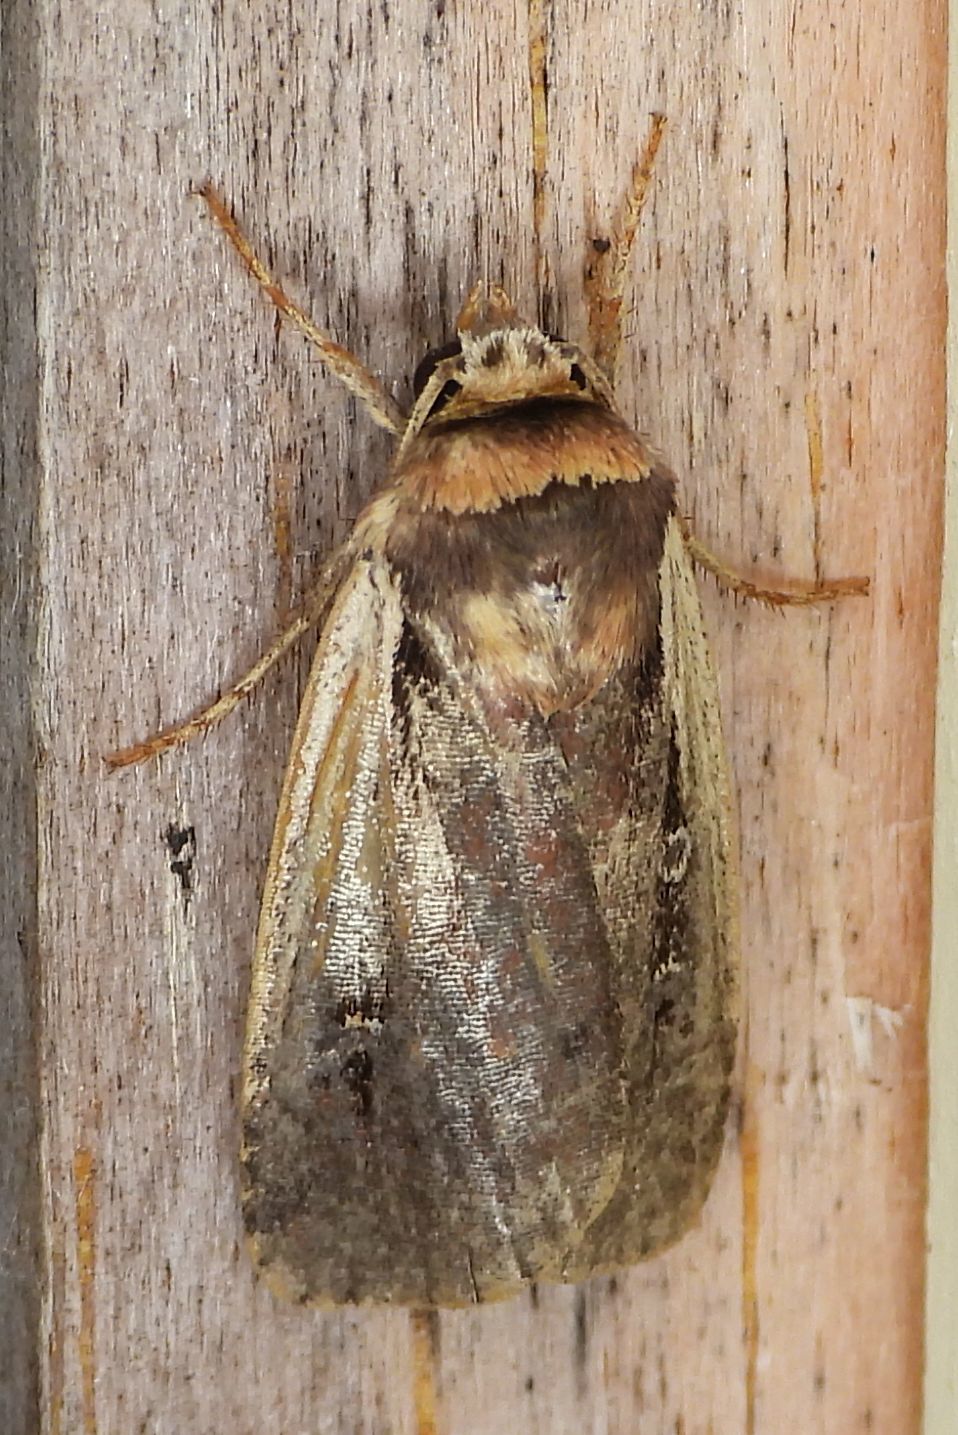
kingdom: Animalia
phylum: Arthropoda
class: Insecta
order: Lepidoptera
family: Noctuidae
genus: Ochropleura
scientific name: Ochropleura implecta
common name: Flame-shouldered dart
